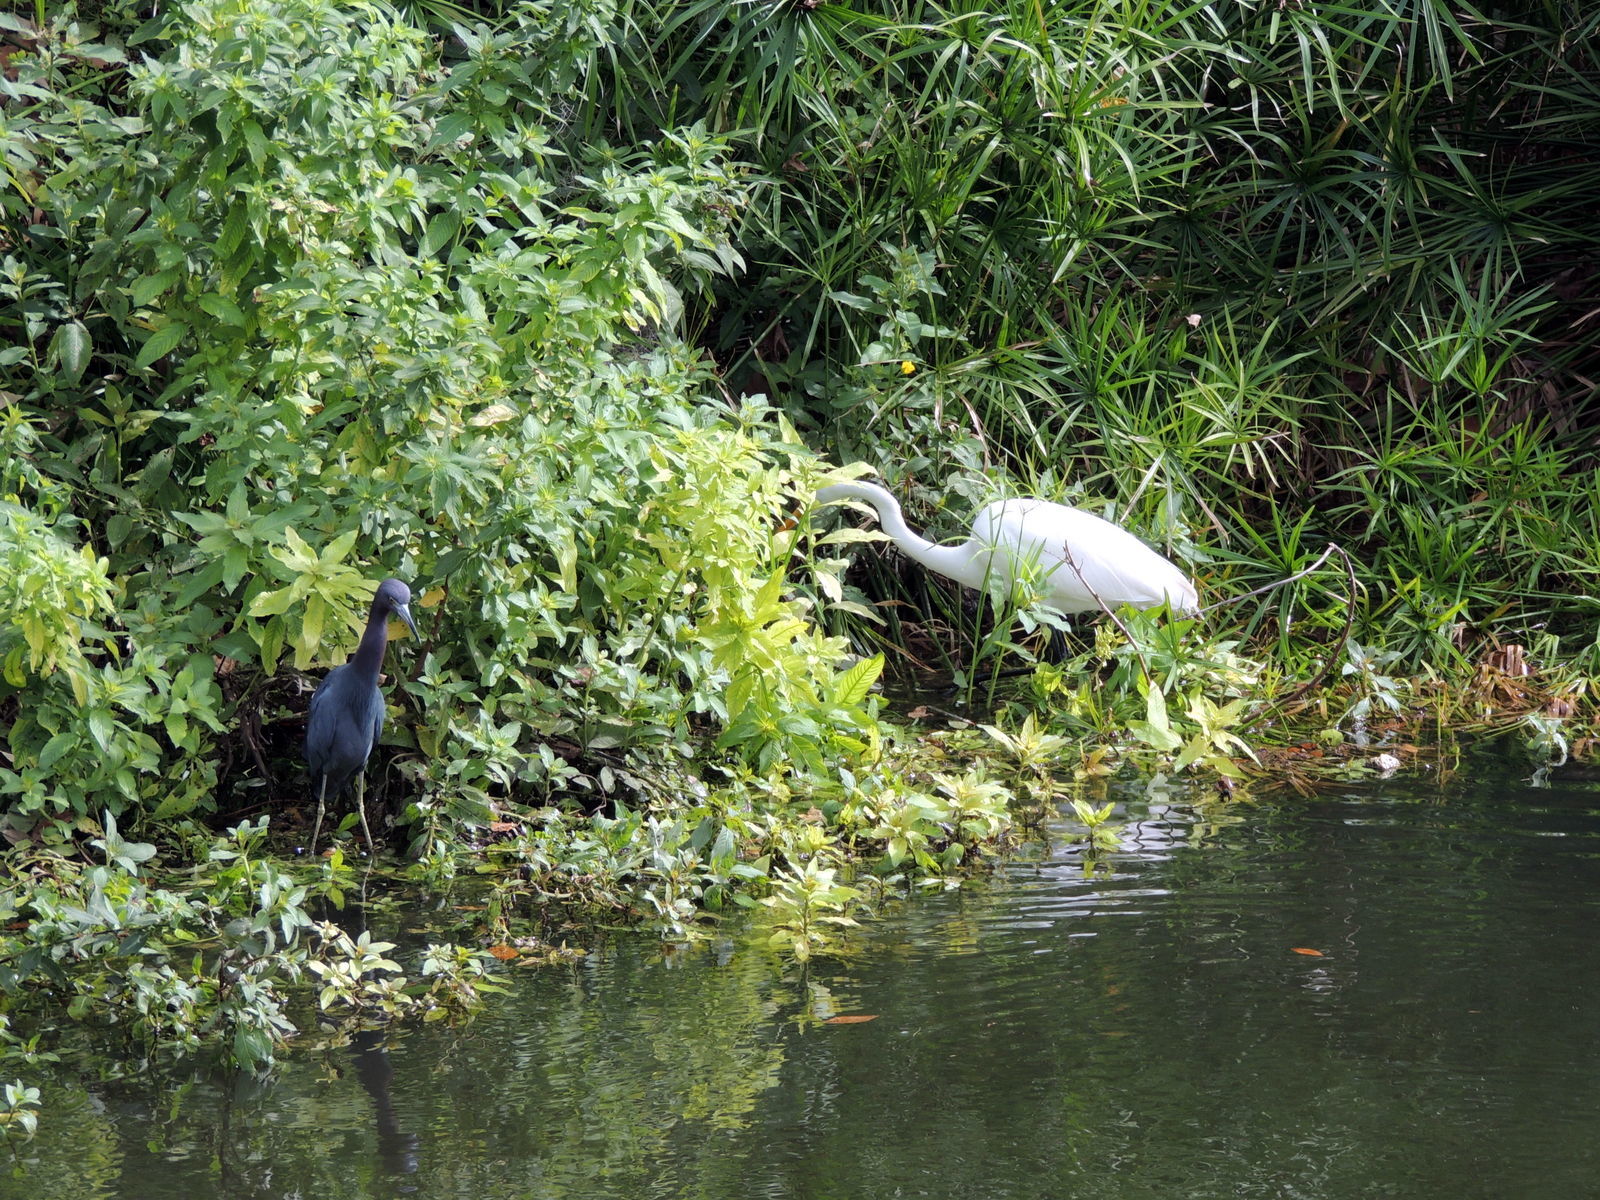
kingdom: Animalia
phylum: Chordata
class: Aves
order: Pelecaniformes
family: Ardeidae
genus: Ardea
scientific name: Ardea alba
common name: Great egret
